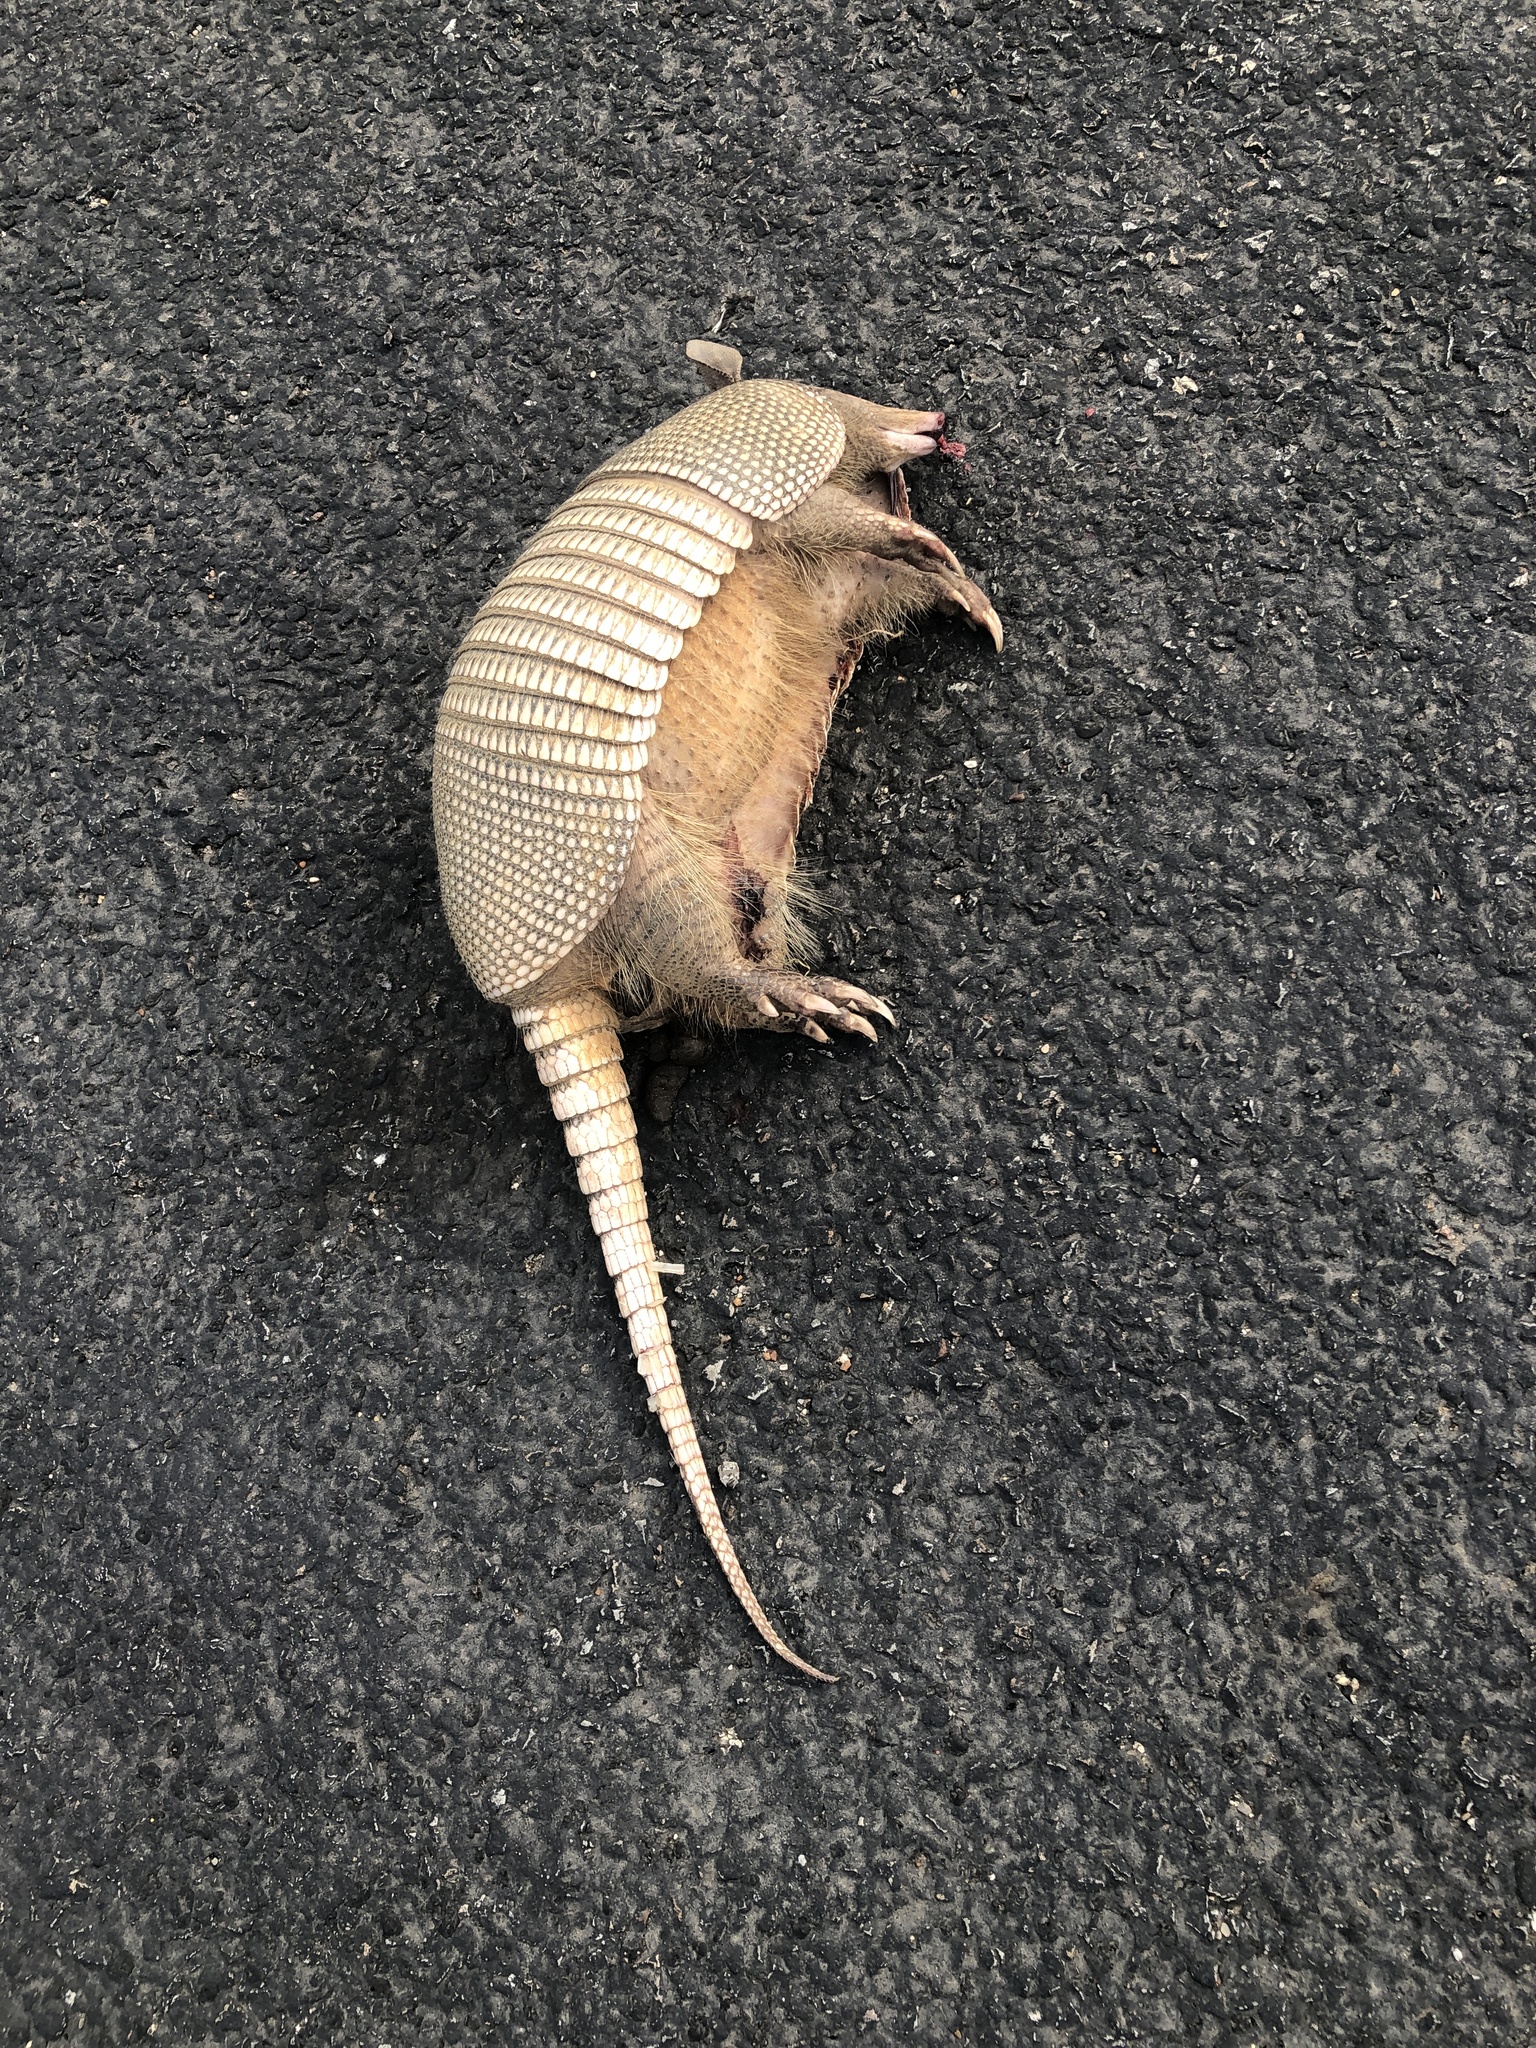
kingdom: Animalia
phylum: Chordata
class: Mammalia
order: Cingulata
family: Dasypodidae
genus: Dasypus
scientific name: Dasypus novemcinctus
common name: Nine-banded armadillo
